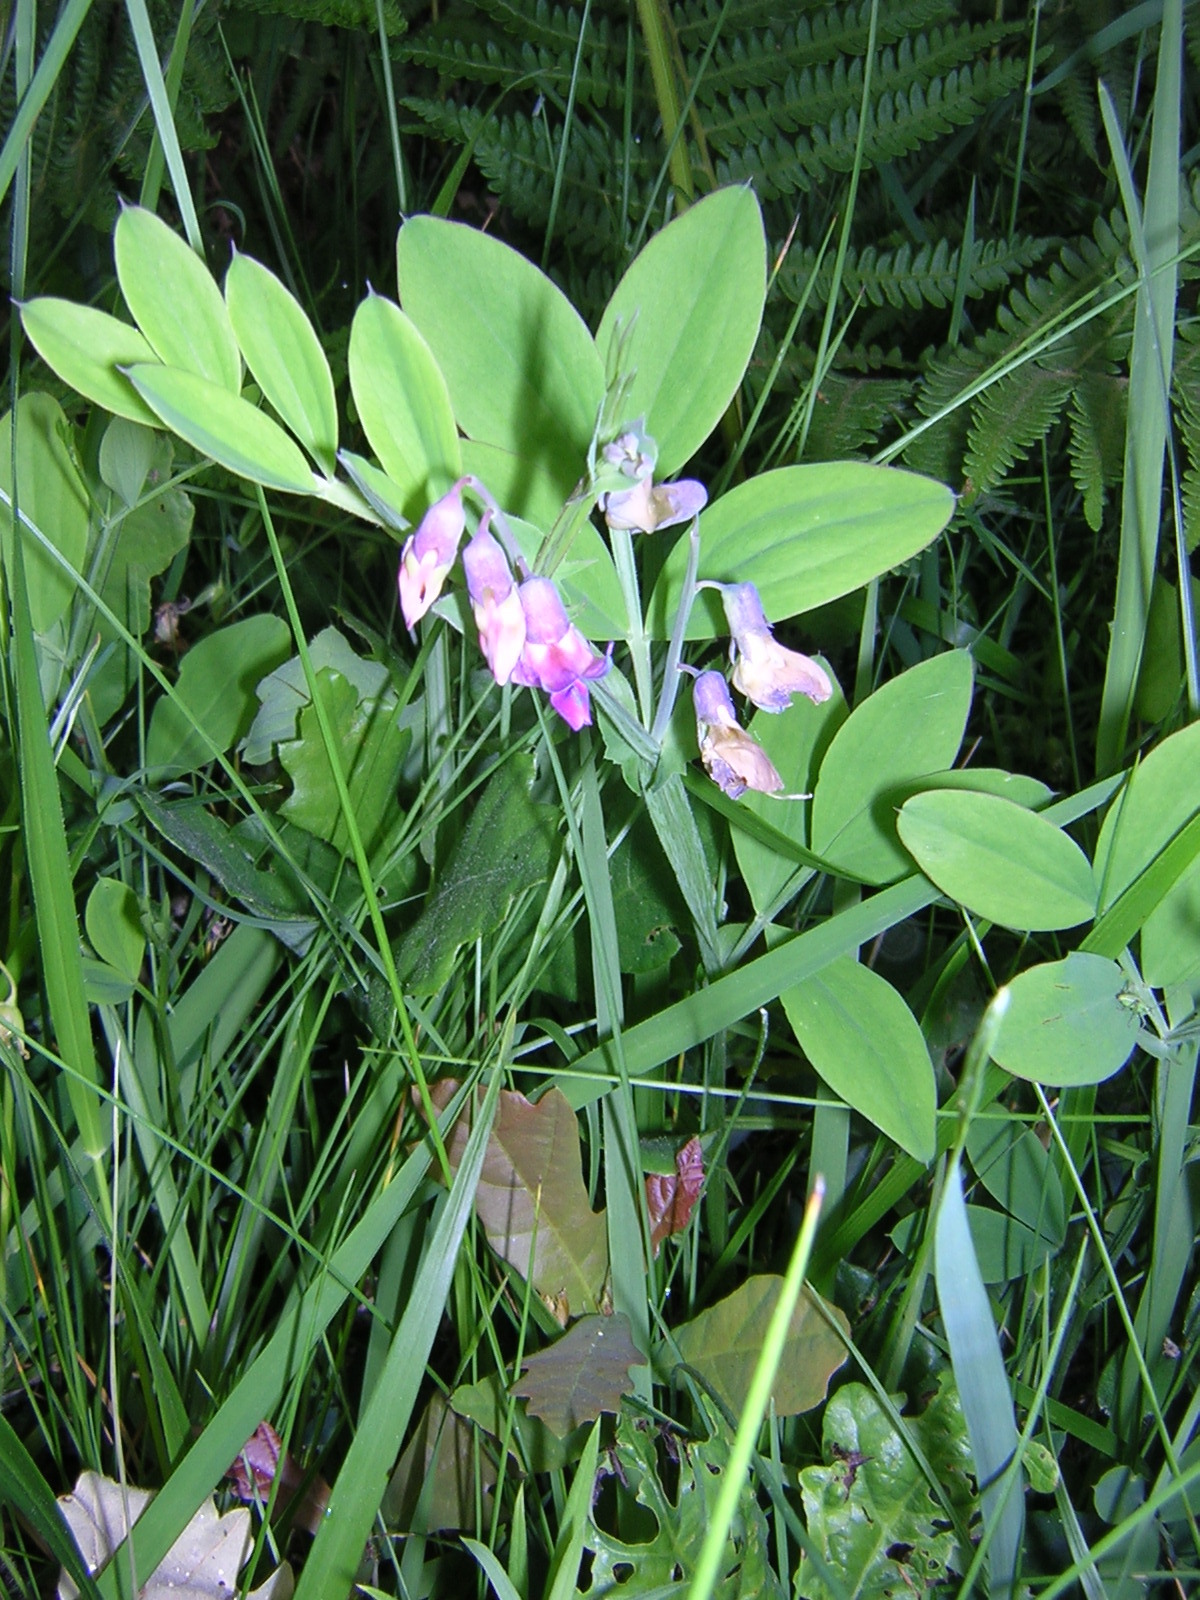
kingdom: Plantae
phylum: Tracheophyta
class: Magnoliopsida
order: Fabales
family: Fabaceae
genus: Lathyrus
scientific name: Lathyrus linifolius
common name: Bitter-vetch
